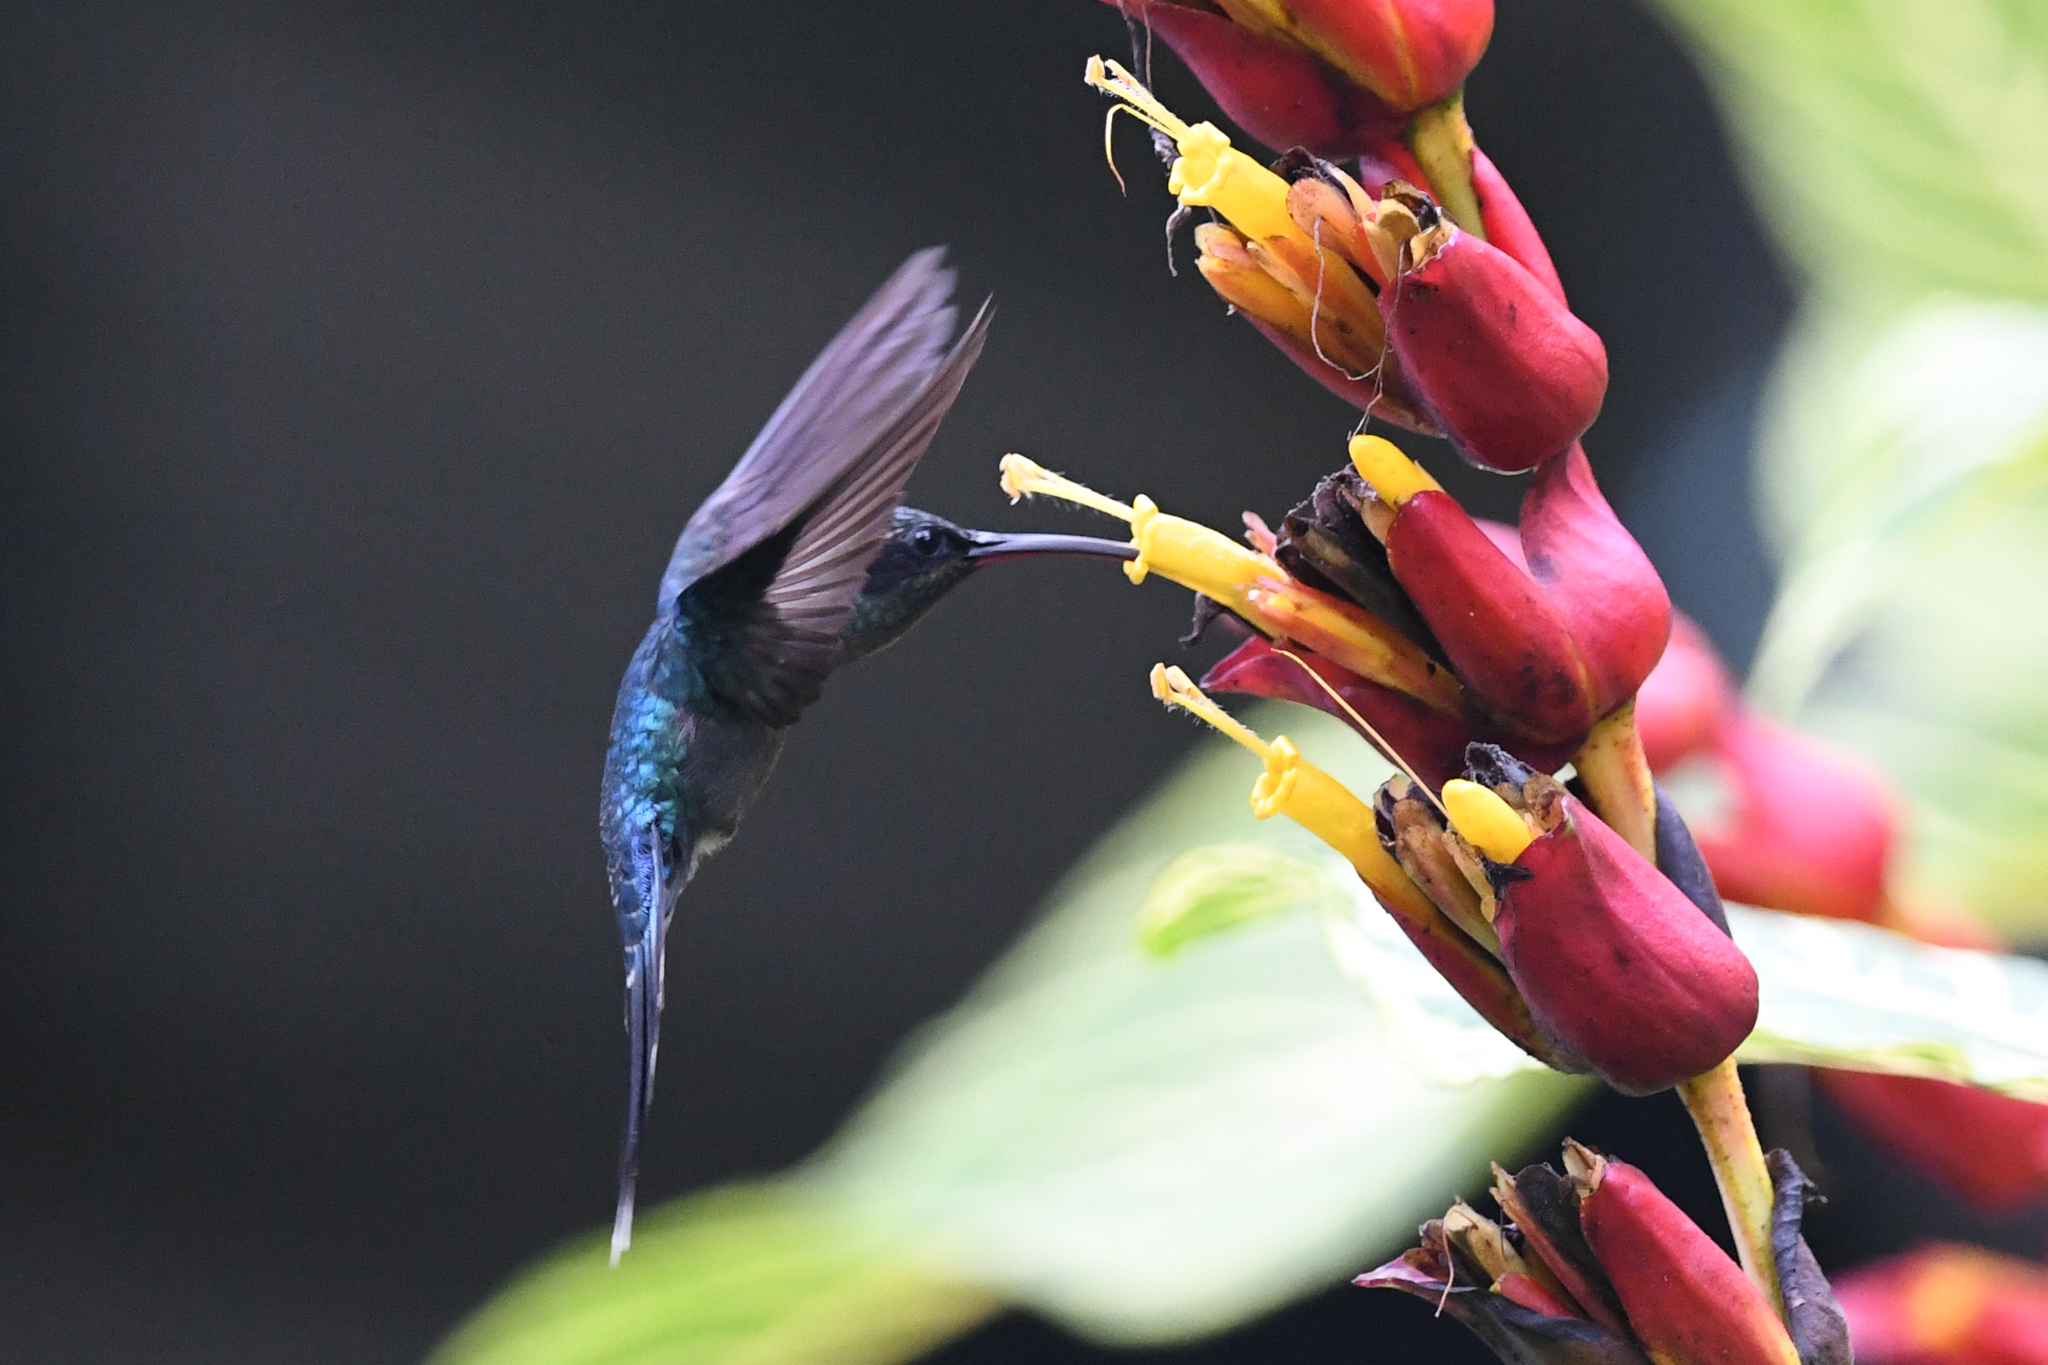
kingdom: Animalia
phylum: Chordata
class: Aves
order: Apodiformes
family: Trochilidae
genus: Phaethornis
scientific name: Phaethornis guy
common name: Green hermit
